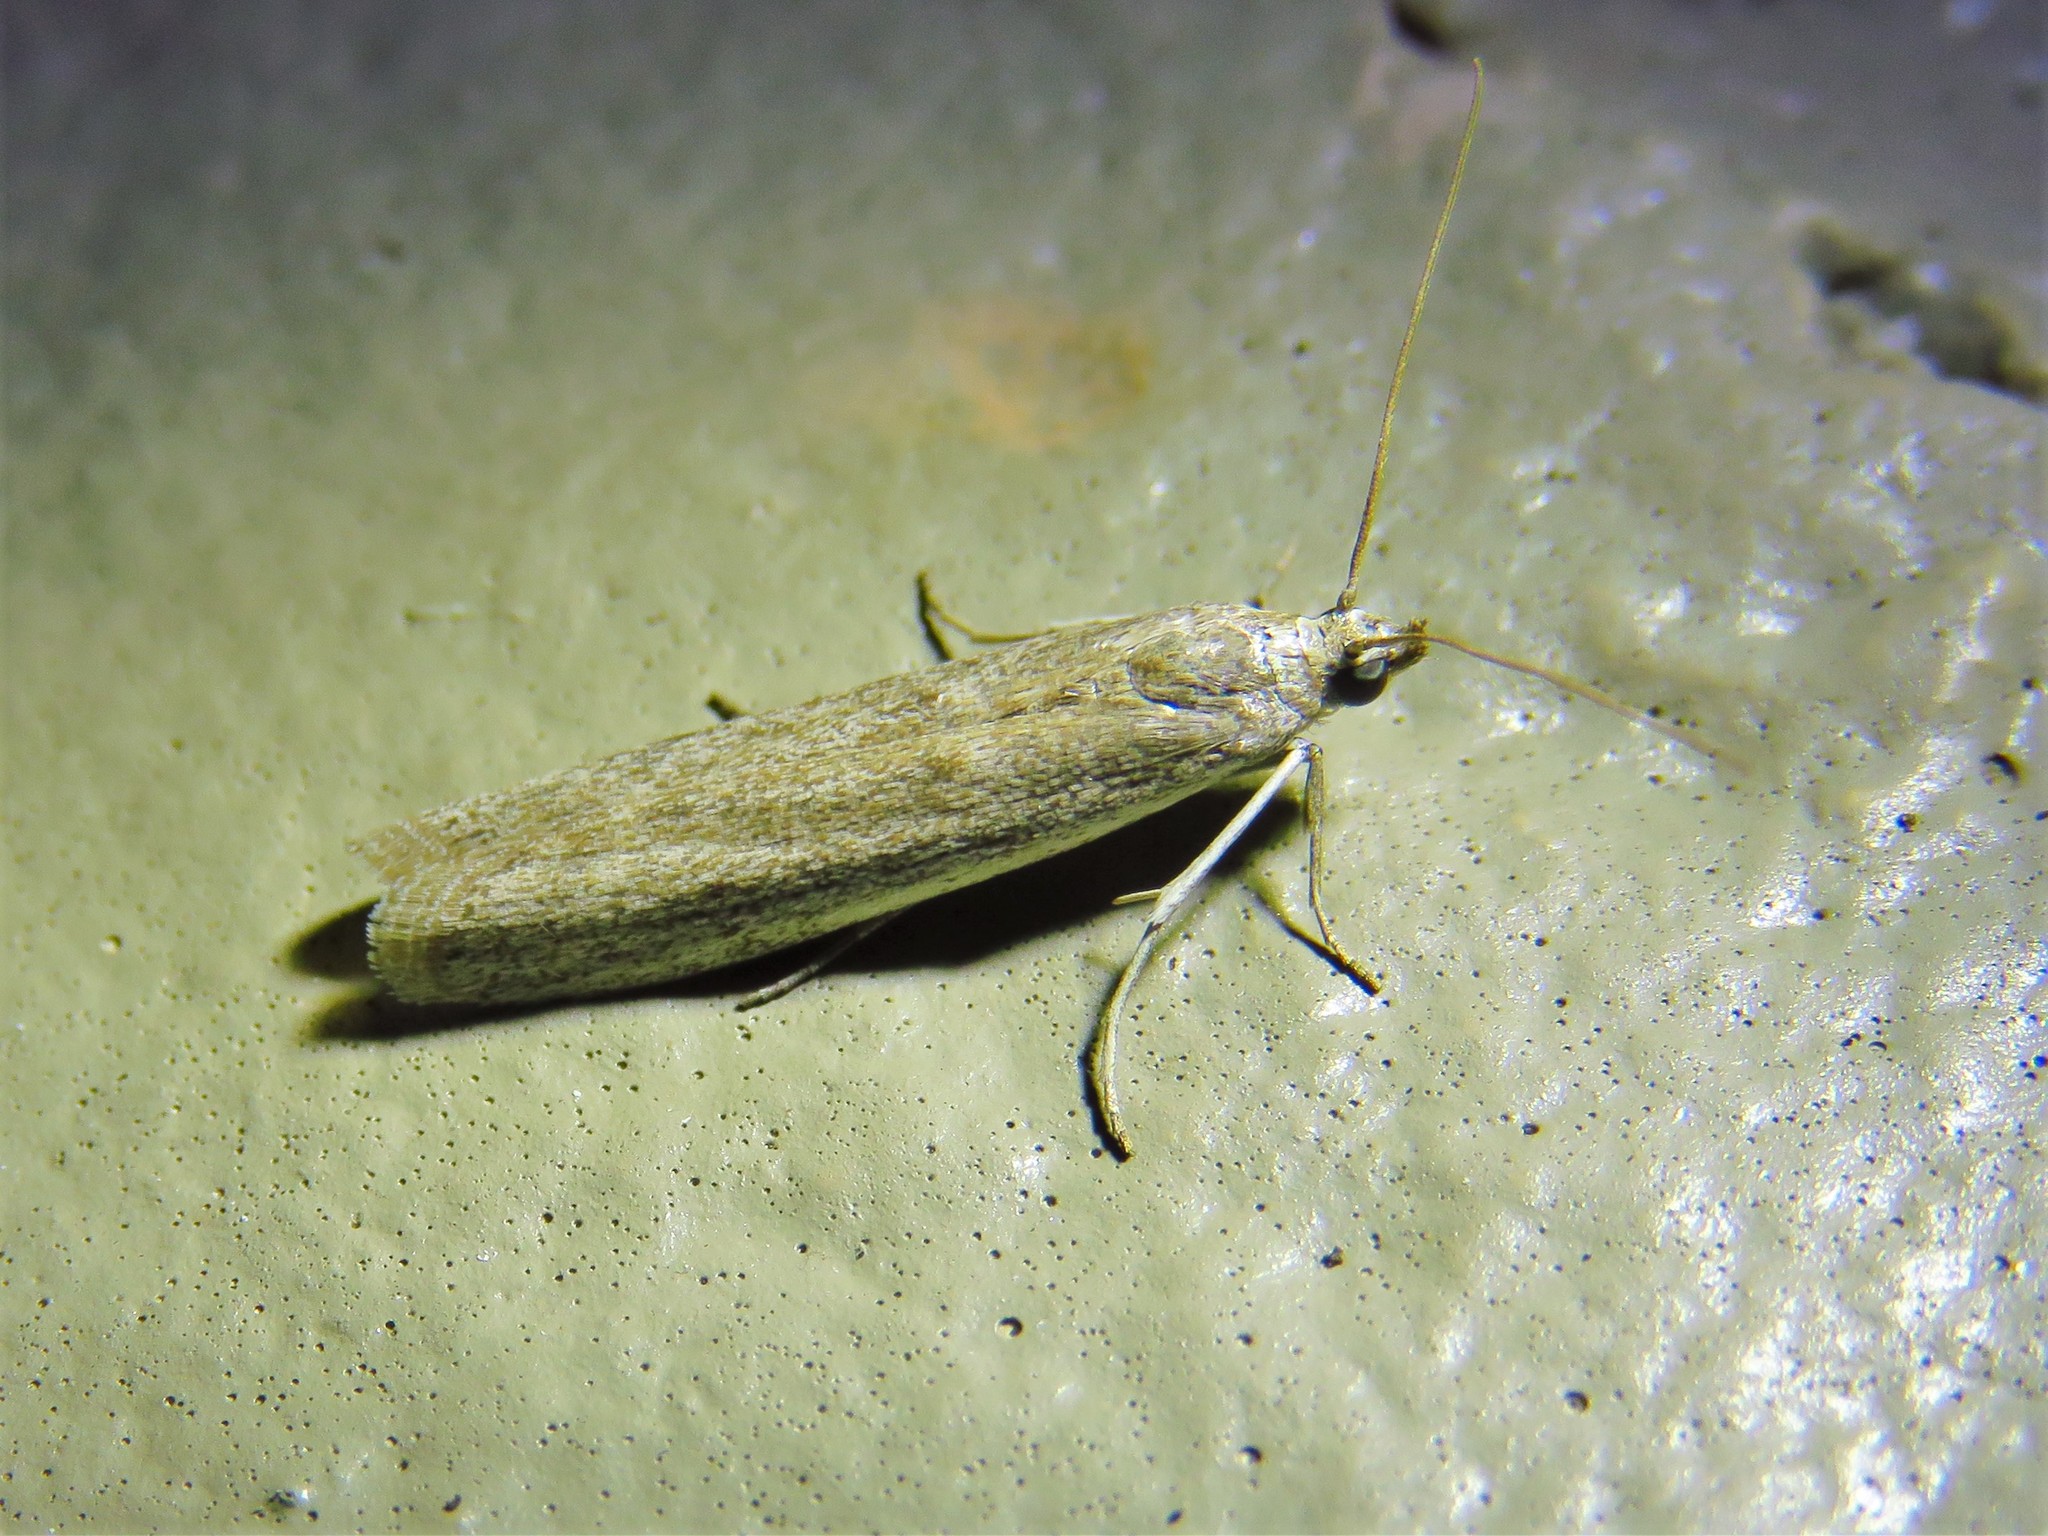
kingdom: Animalia
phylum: Arthropoda
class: Insecta
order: Lepidoptera
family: Pyralidae
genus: Homoeosoma
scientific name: Homoeosoma electella
